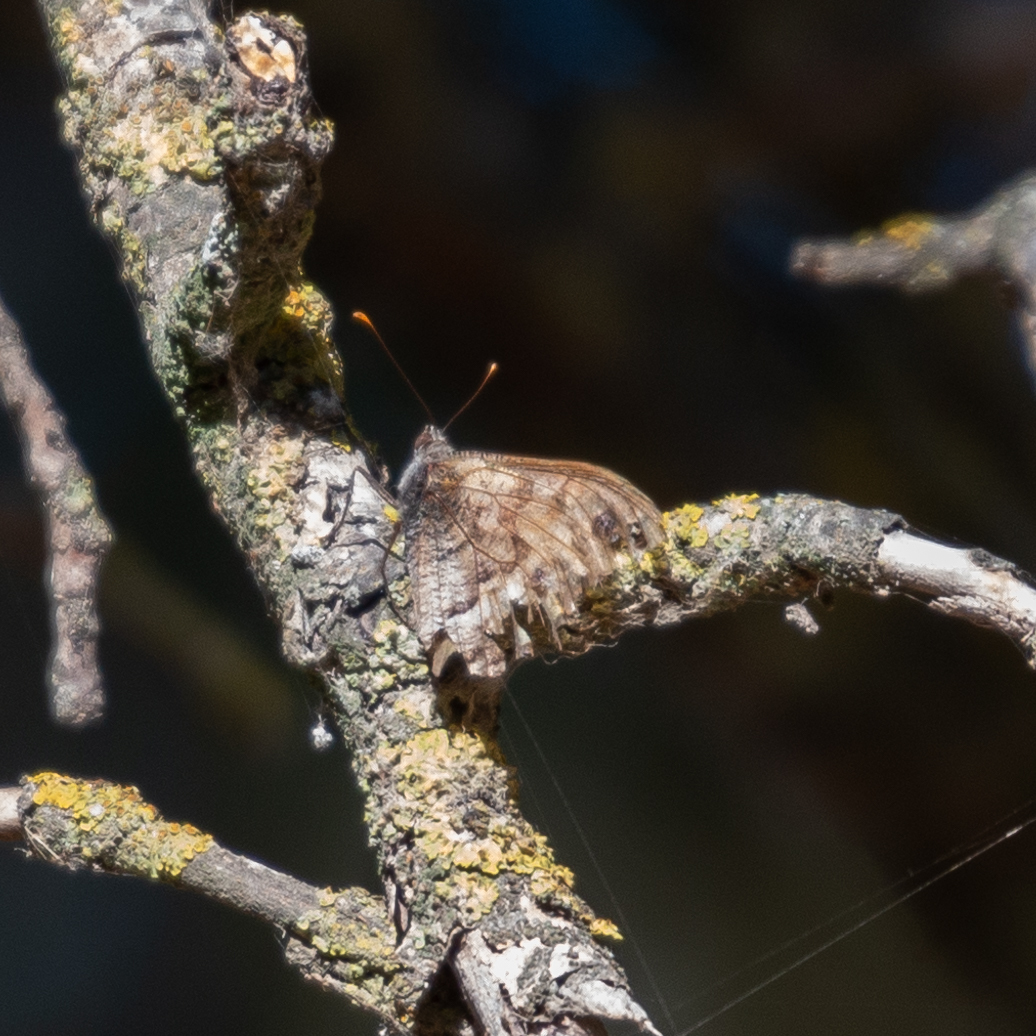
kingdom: Animalia
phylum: Arthropoda
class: Insecta
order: Lepidoptera
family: Nymphalidae
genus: Hipparchia
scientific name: Hipparchia semele
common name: Grayling
